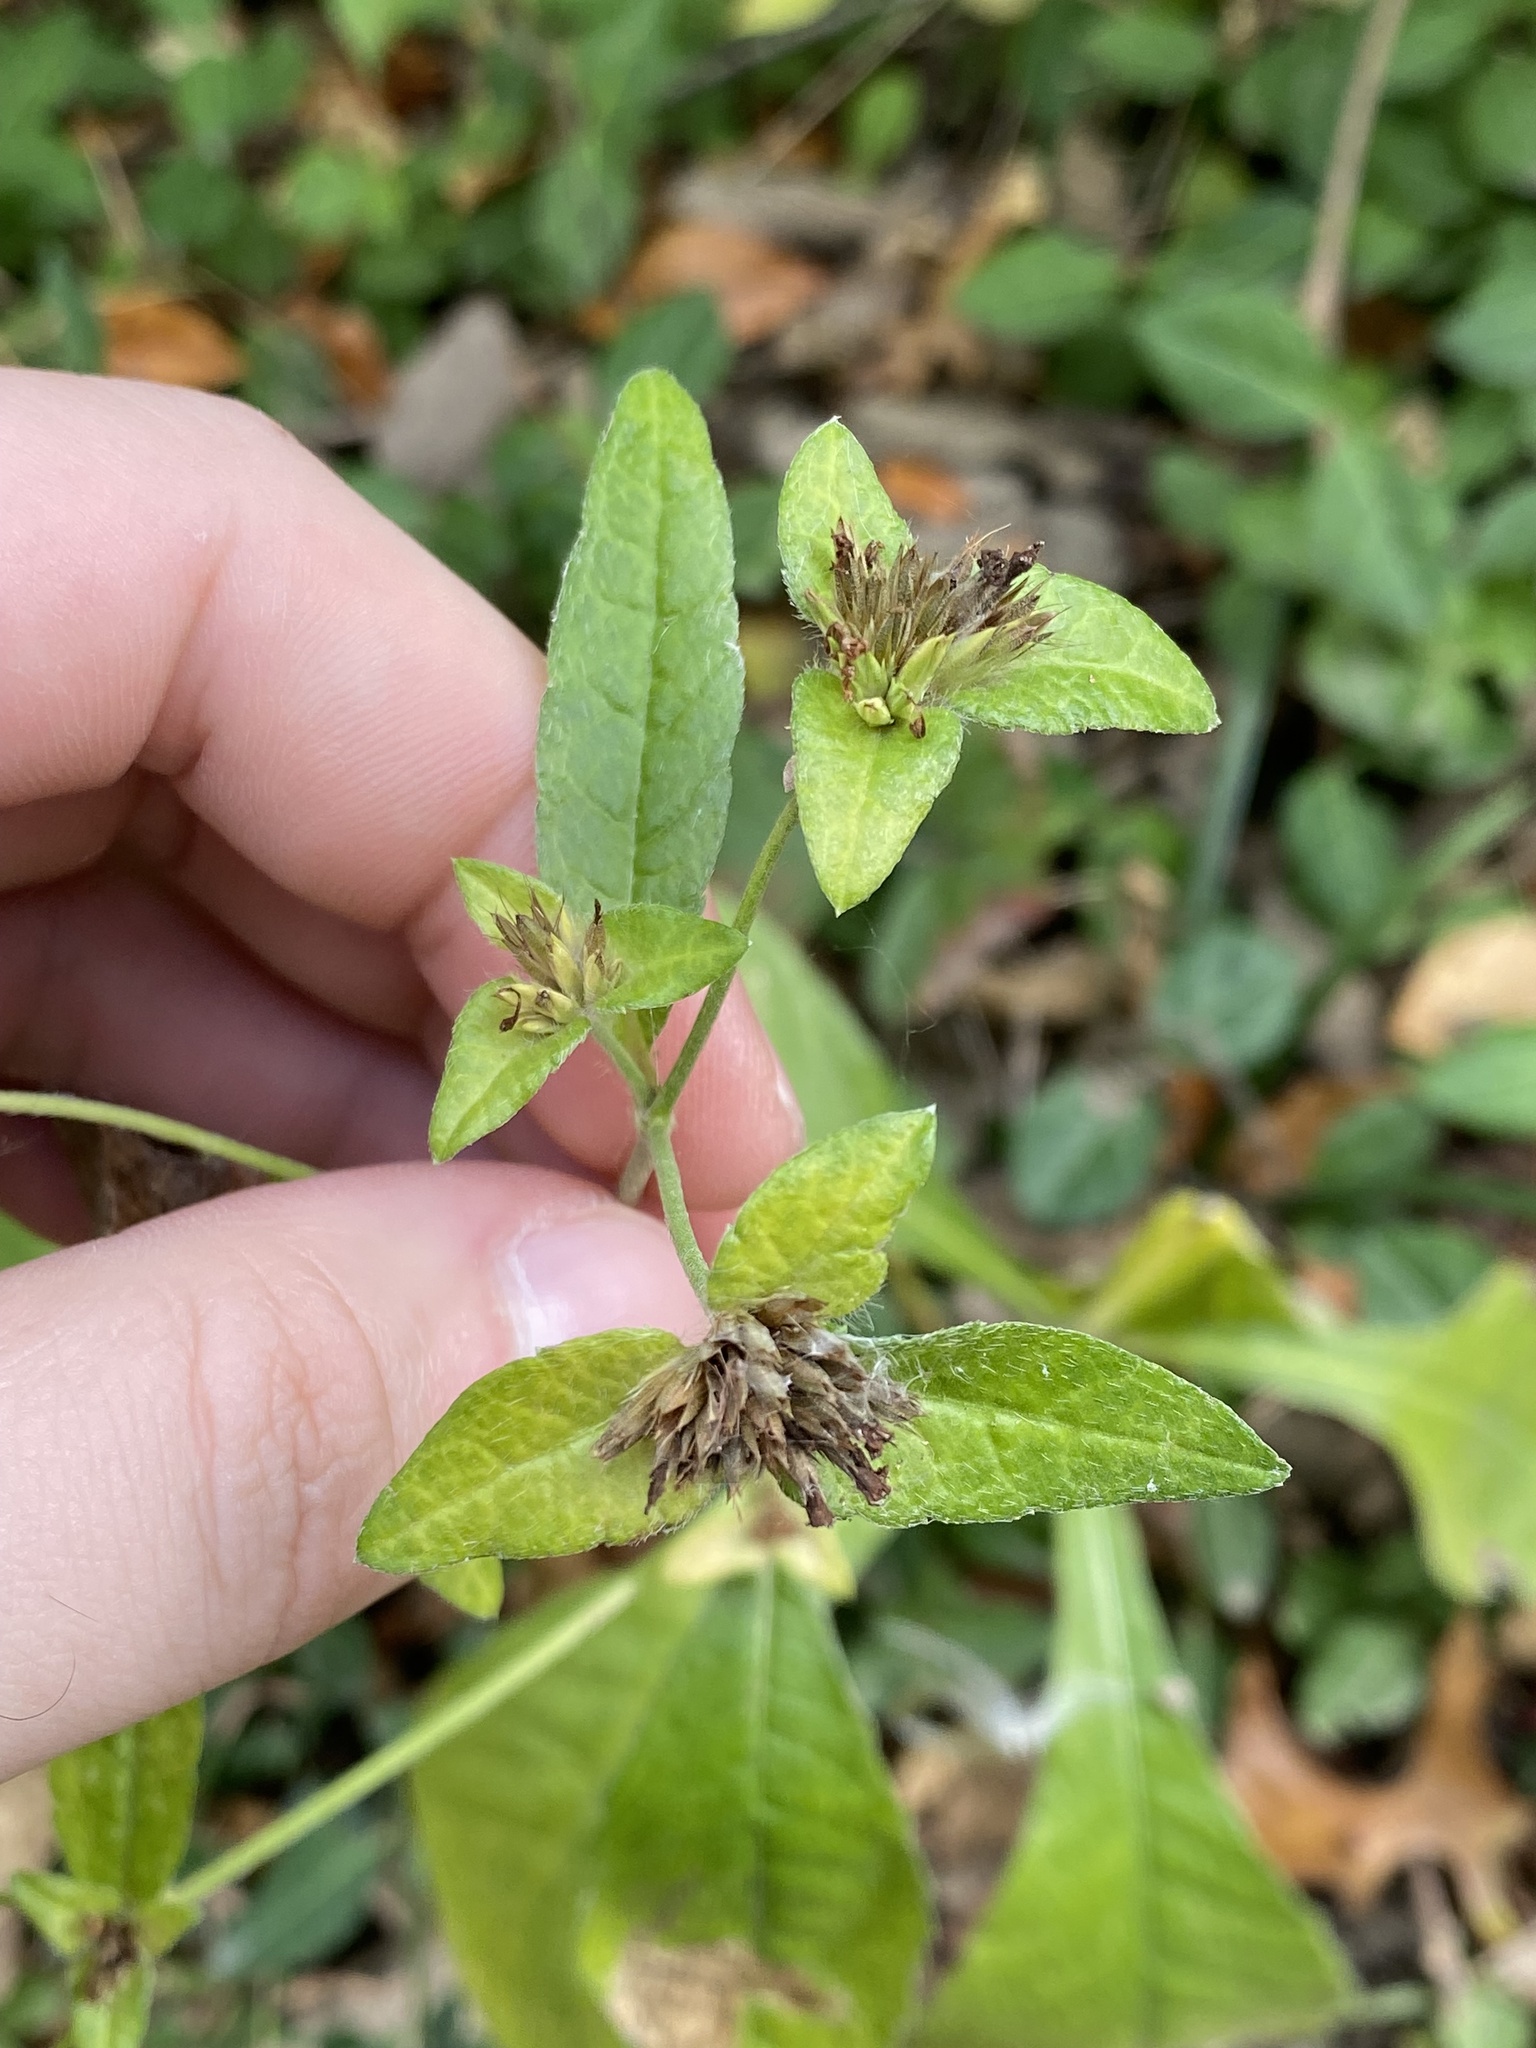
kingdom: Plantae
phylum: Tracheophyta
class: Magnoliopsida
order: Asterales
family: Asteraceae
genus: Elephantopus
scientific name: Elephantopus carolinianus
